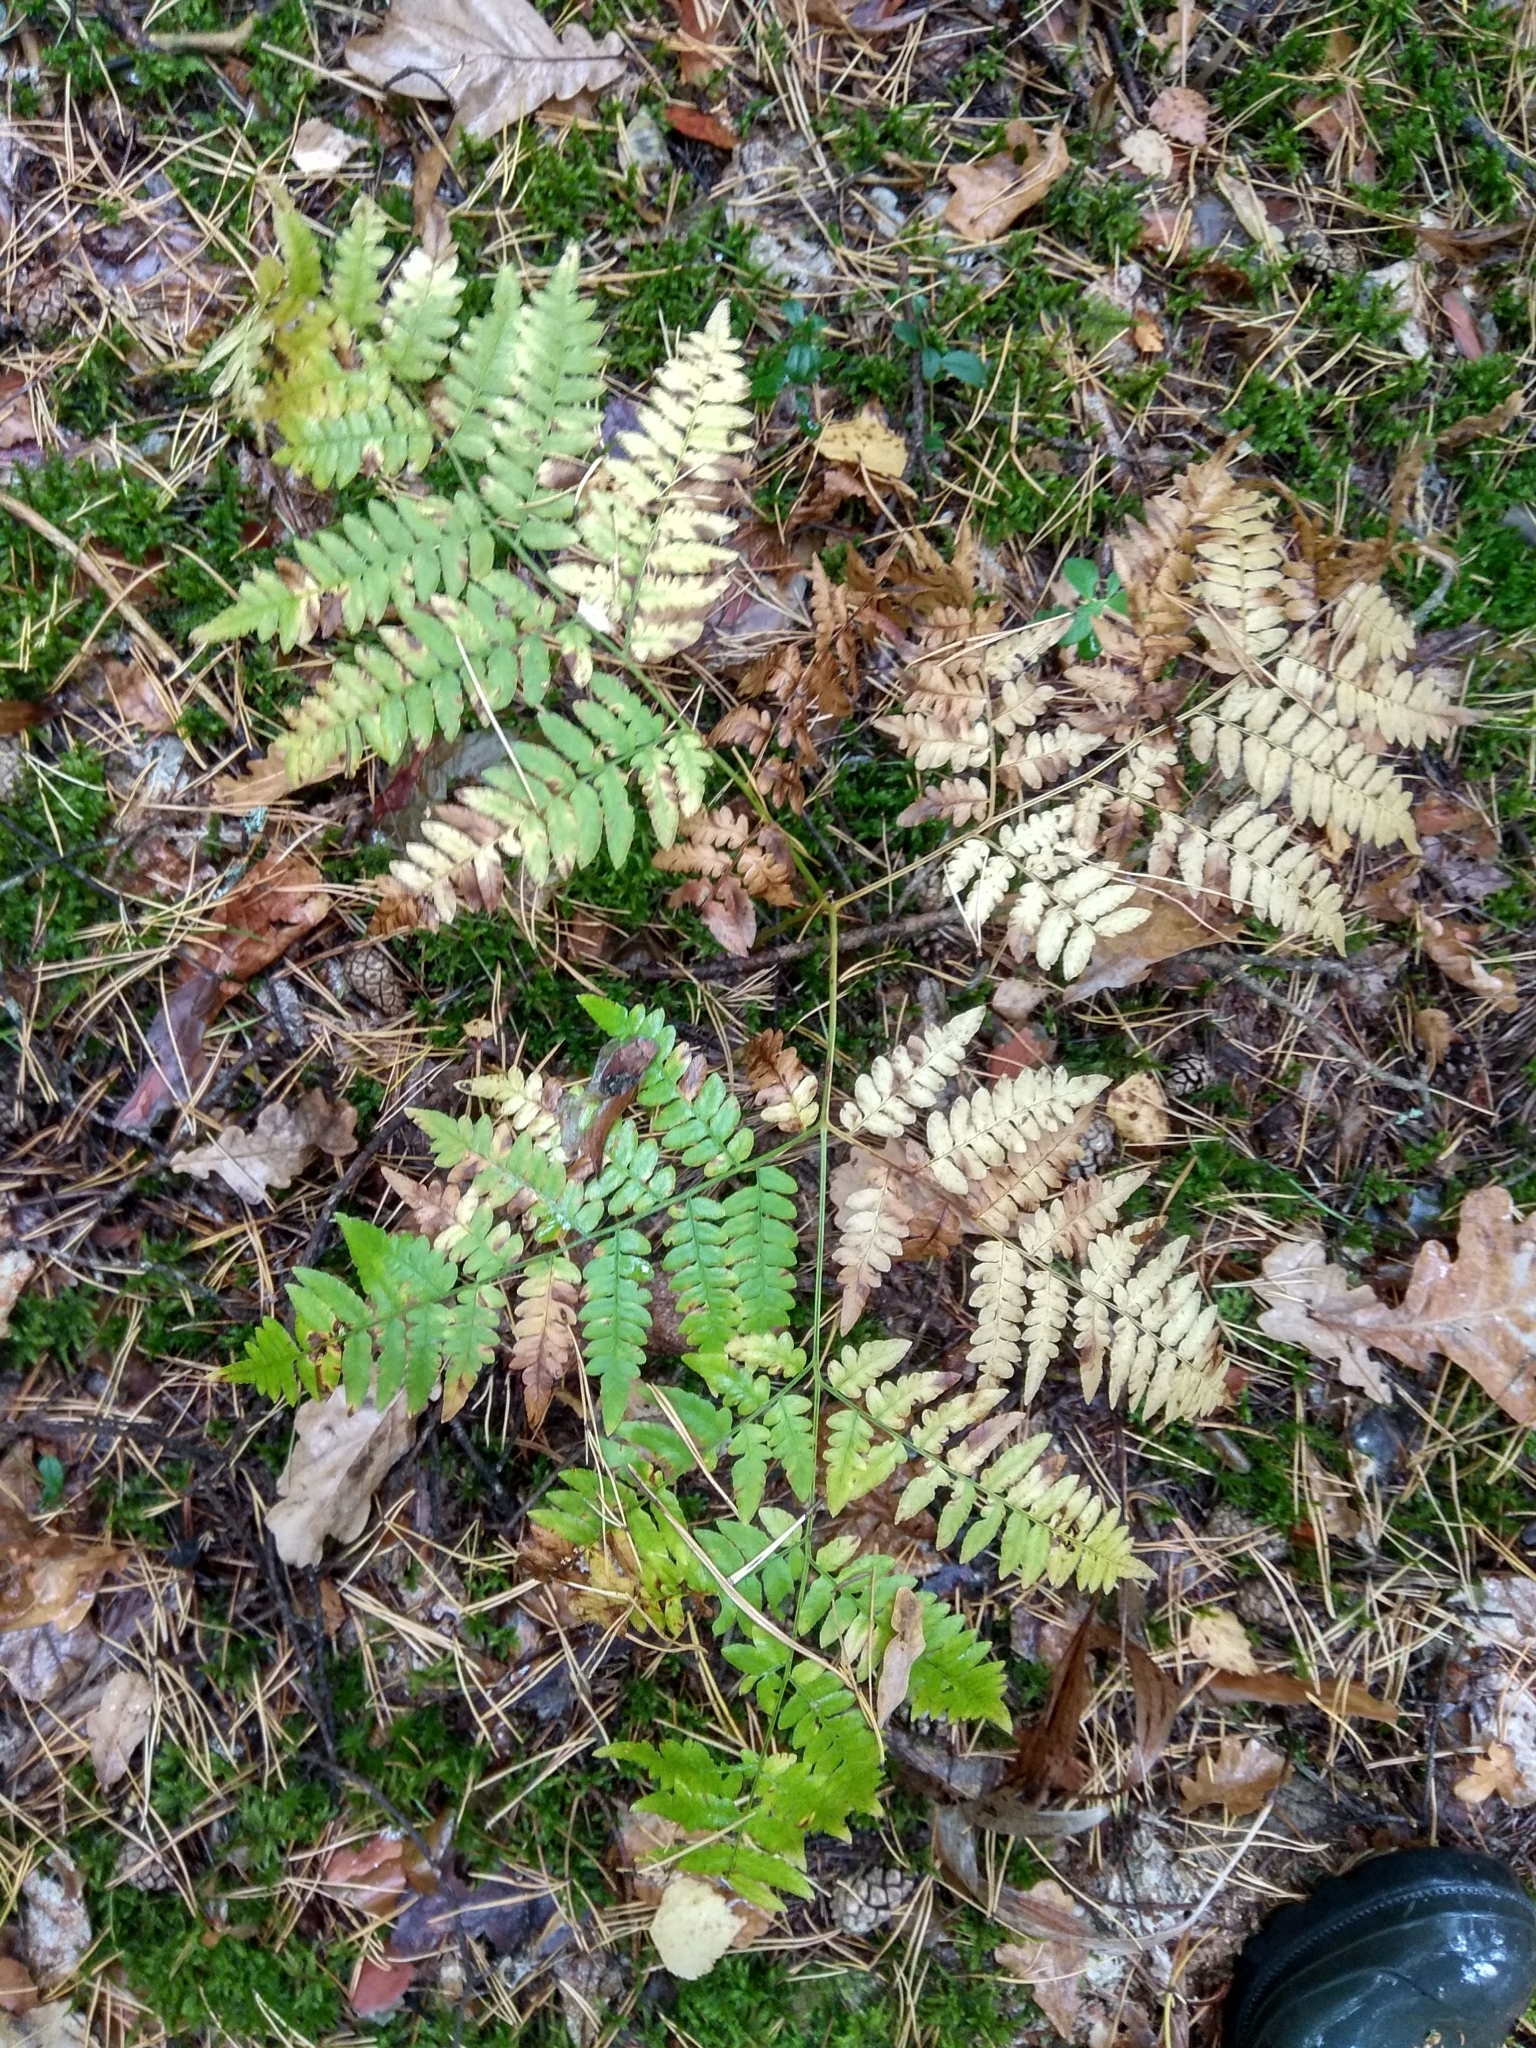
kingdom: Plantae
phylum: Tracheophyta
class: Polypodiopsida
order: Polypodiales
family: Dennstaedtiaceae
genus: Pteridium
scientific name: Pteridium aquilinum
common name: Bracken
